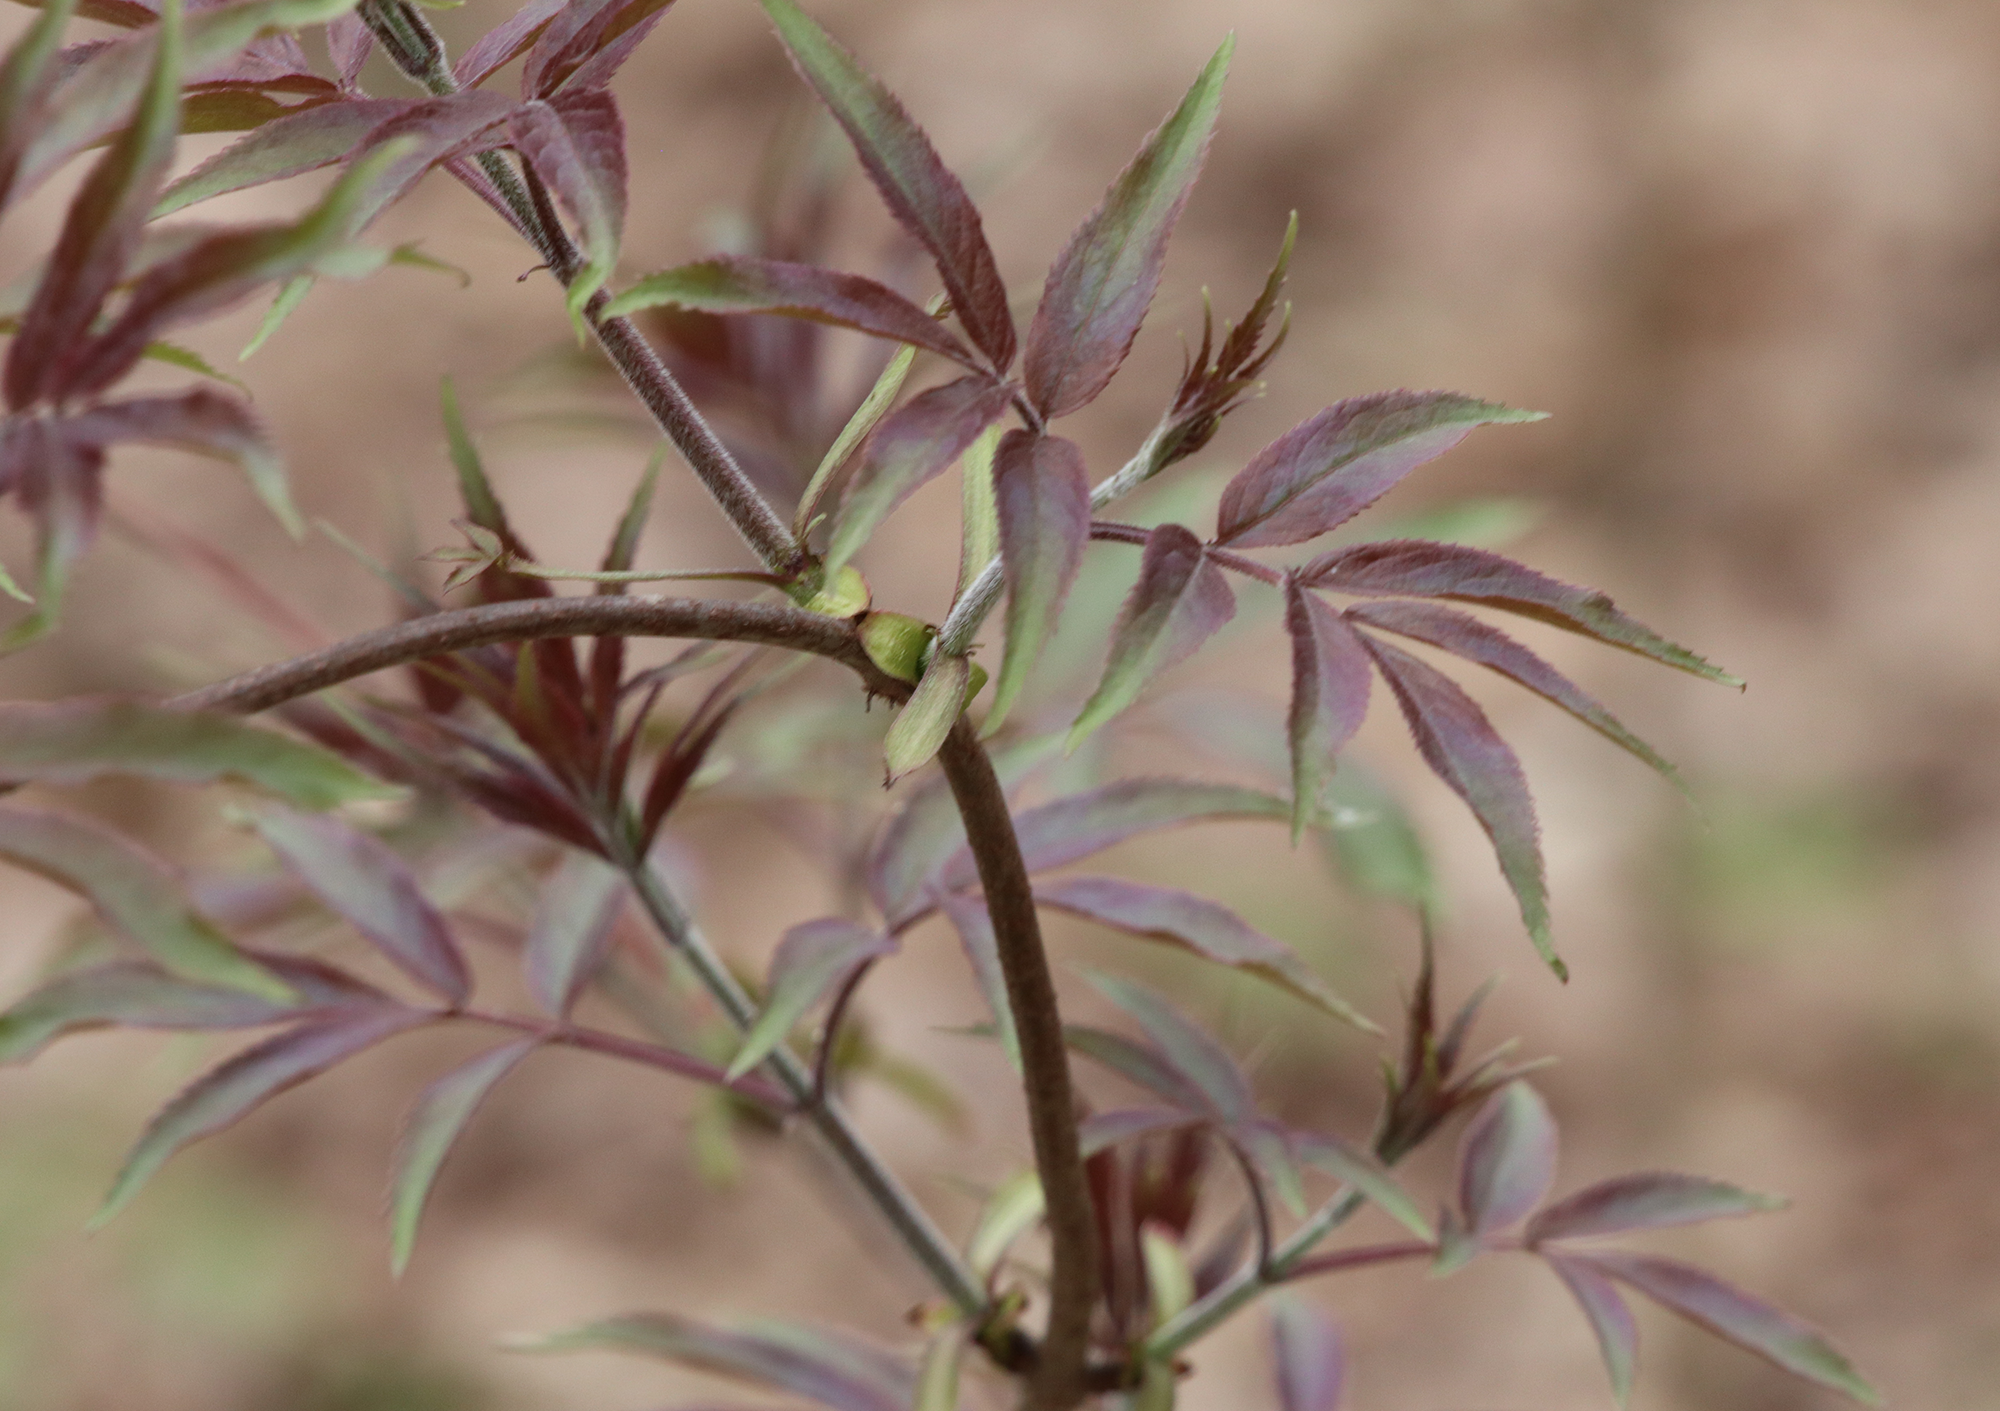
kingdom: Plantae
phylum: Tracheophyta
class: Magnoliopsida
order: Dipsacales
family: Viburnaceae
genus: Sambucus
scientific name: Sambucus racemosa
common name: Red-berried elder
